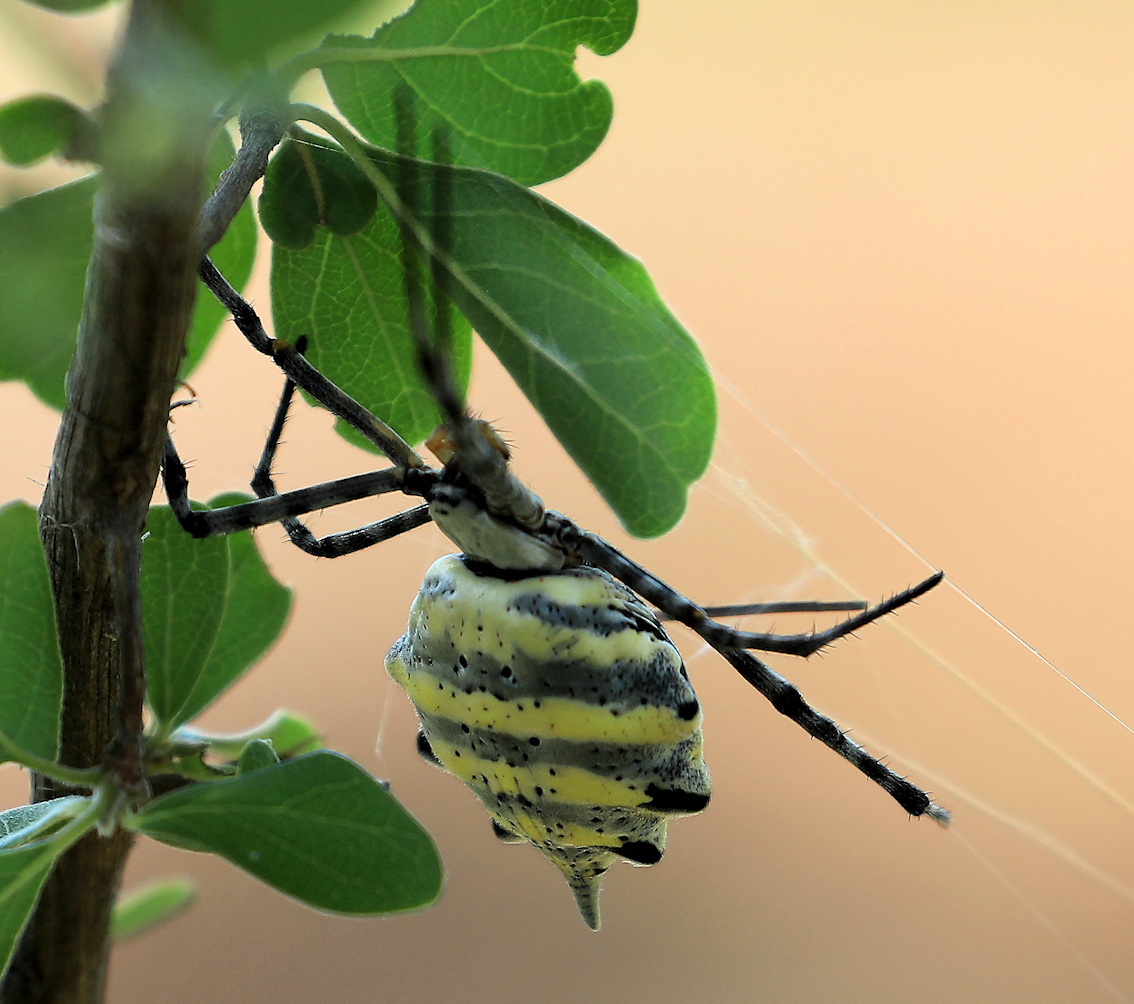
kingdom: Animalia
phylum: Arthropoda
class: Arachnida
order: Araneae
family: Araneidae
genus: Argiope
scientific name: Argiope australis
